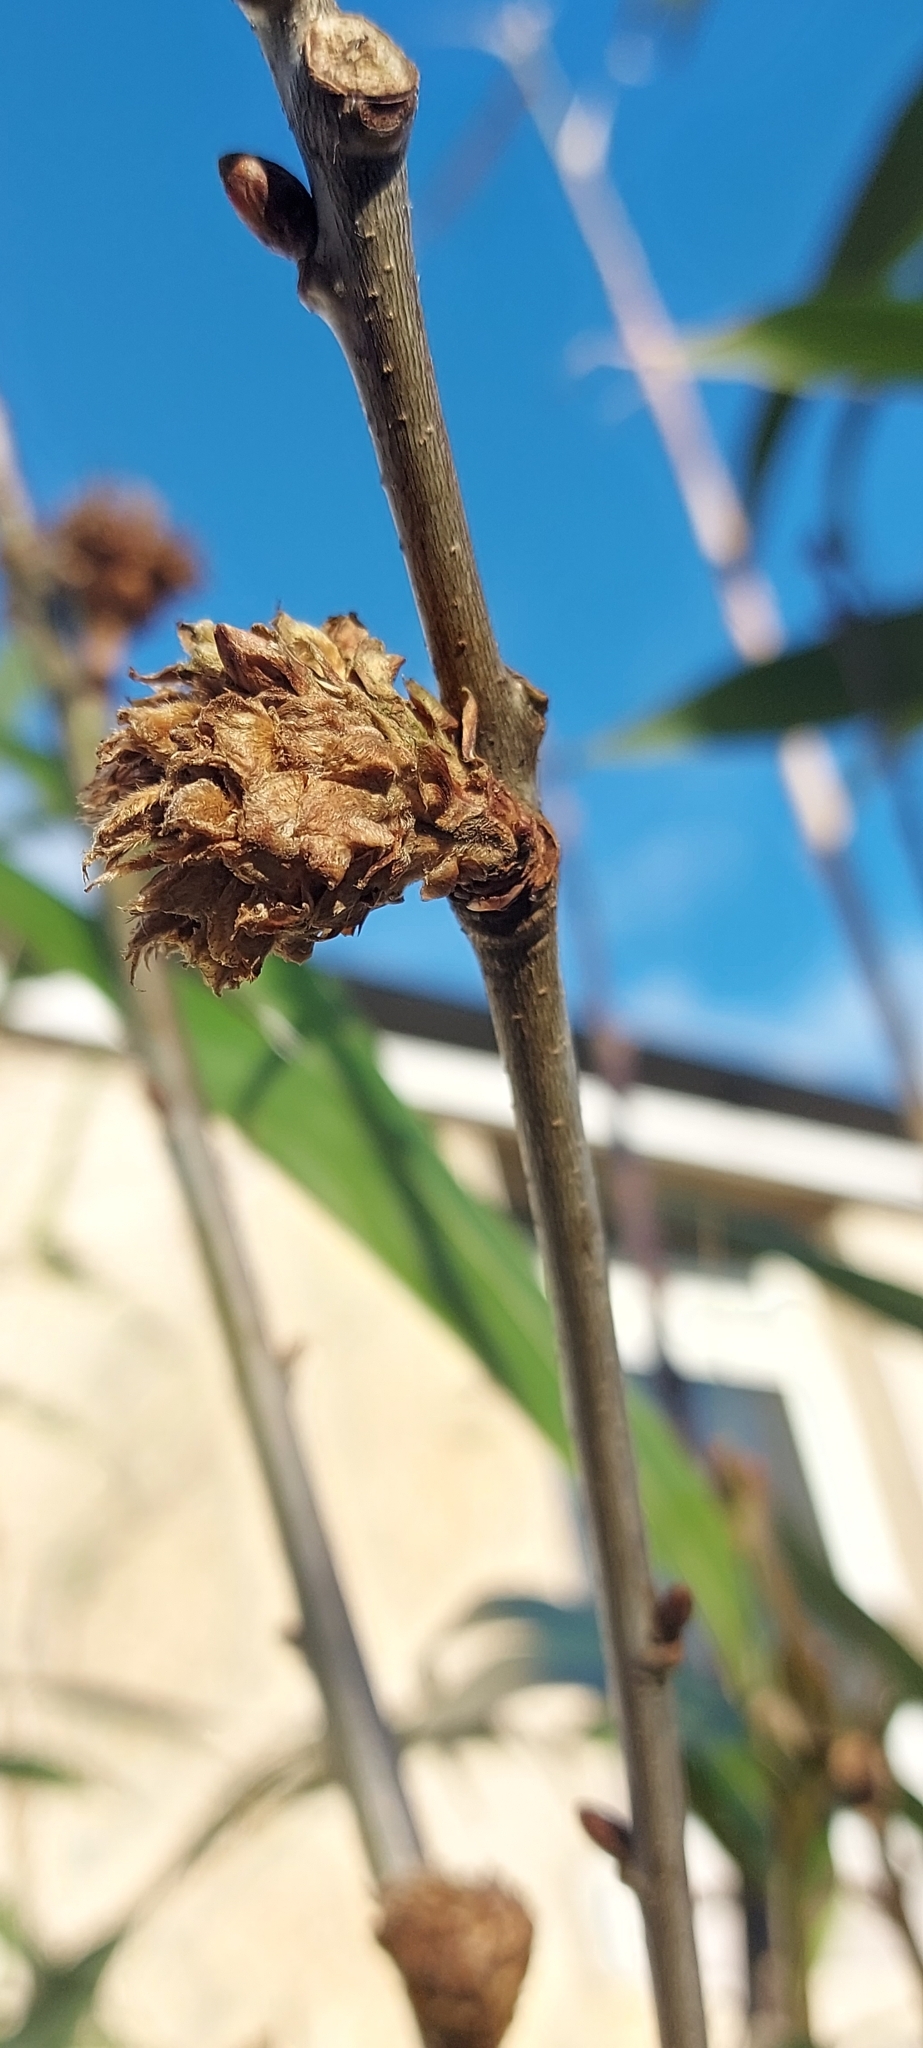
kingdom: Animalia
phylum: Arthropoda
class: Insecta
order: Hymenoptera
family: Cynipidae
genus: Andricus
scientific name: Andricus foecundatrix
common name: Artichoke gall
